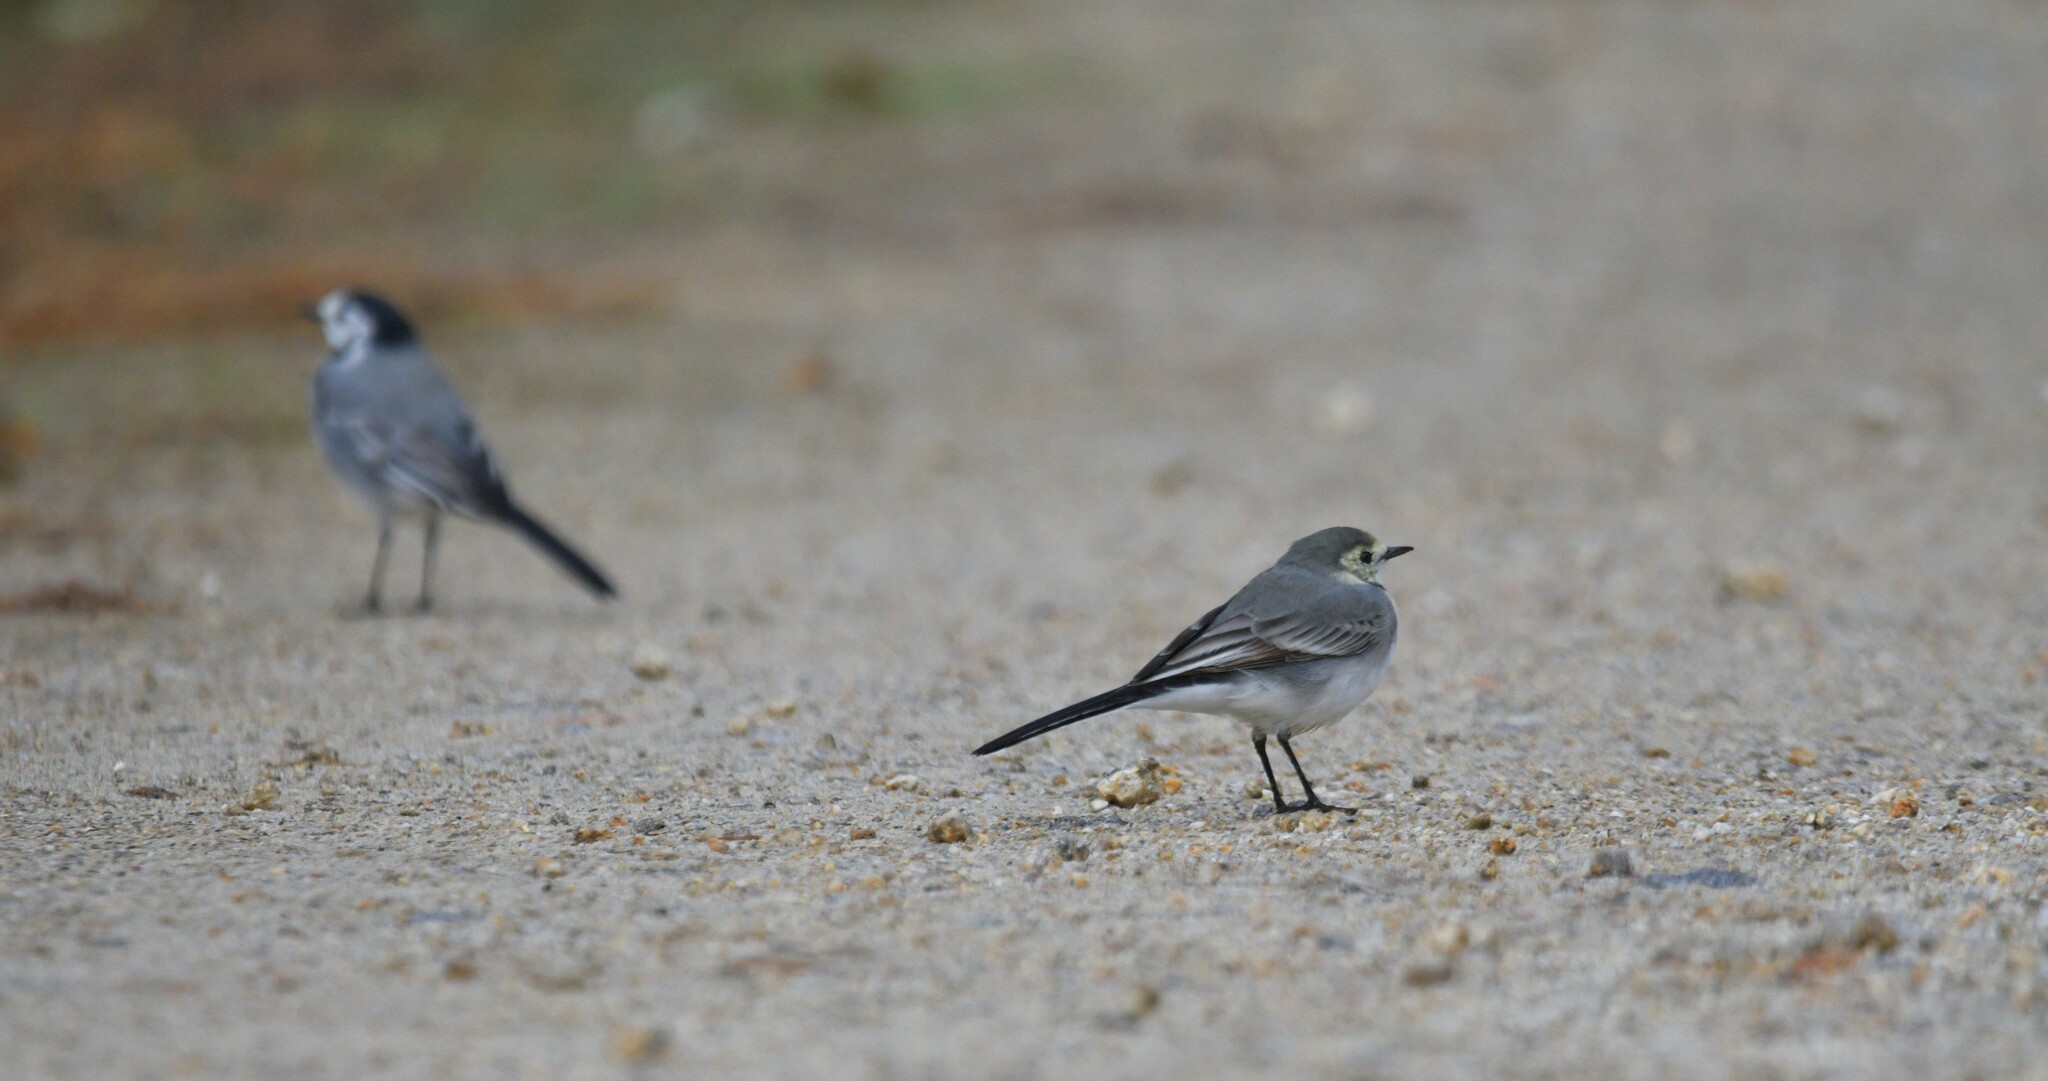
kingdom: Animalia
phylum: Chordata
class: Aves
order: Passeriformes
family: Motacillidae
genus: Motacilla
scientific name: Motacilla alba
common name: White wagtail
